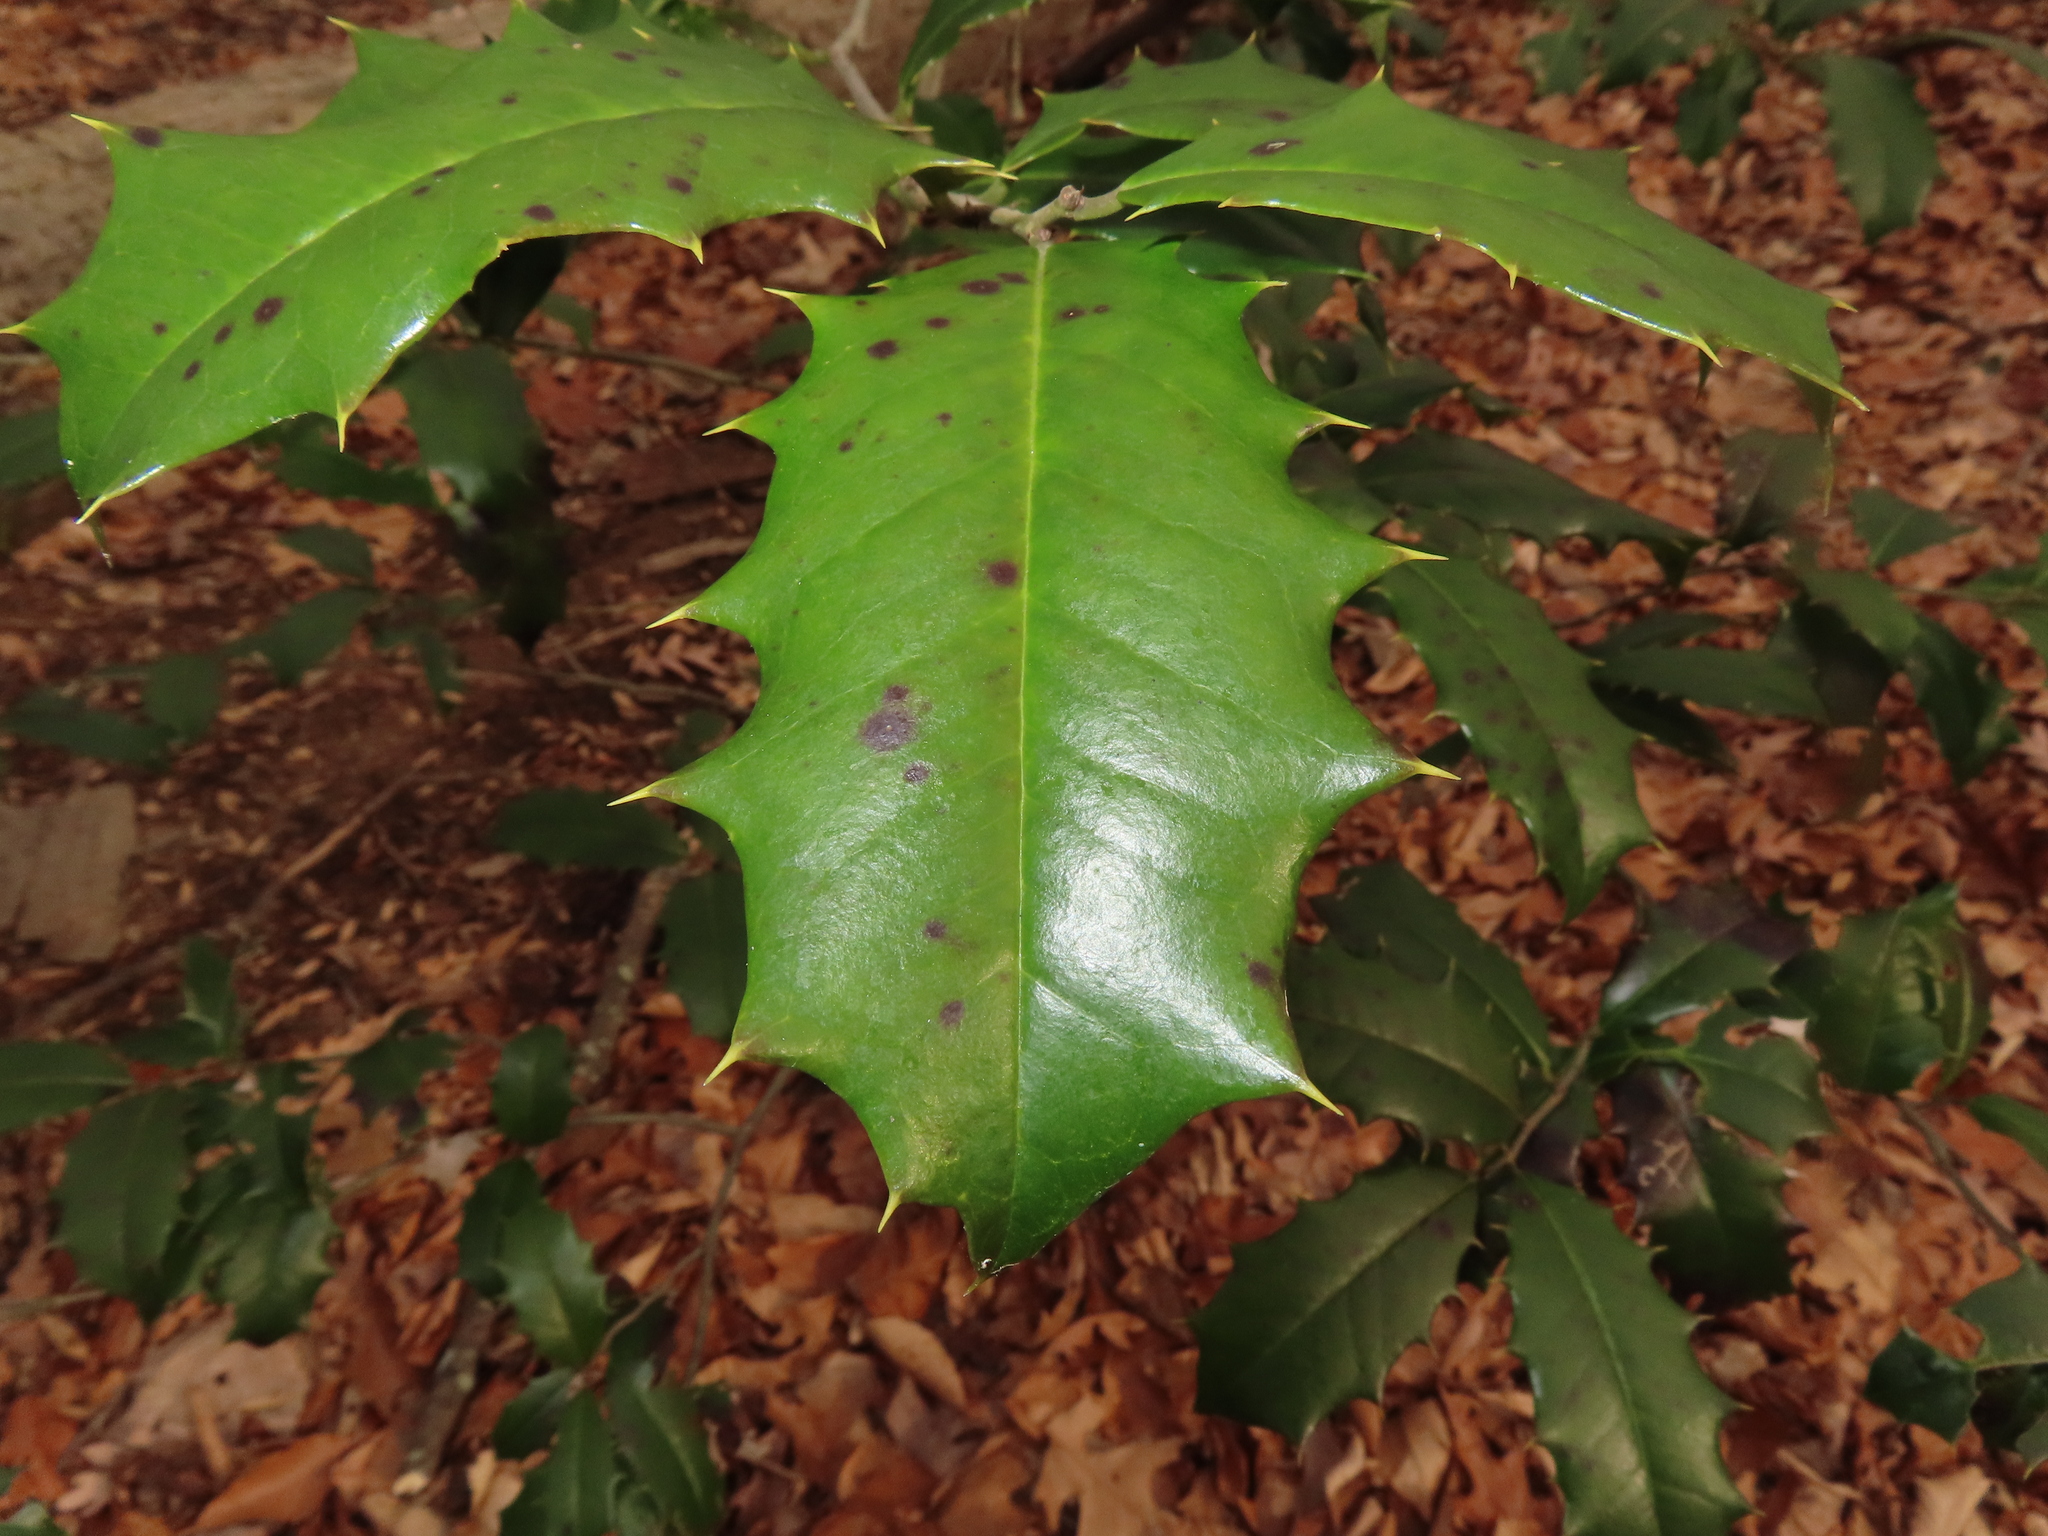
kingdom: Plantae
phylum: Tracheophyta
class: Magnoliopsida
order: Aquifoliales
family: Aquifoliaceae
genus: Ilex
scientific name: Ilex opaca
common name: American holly
